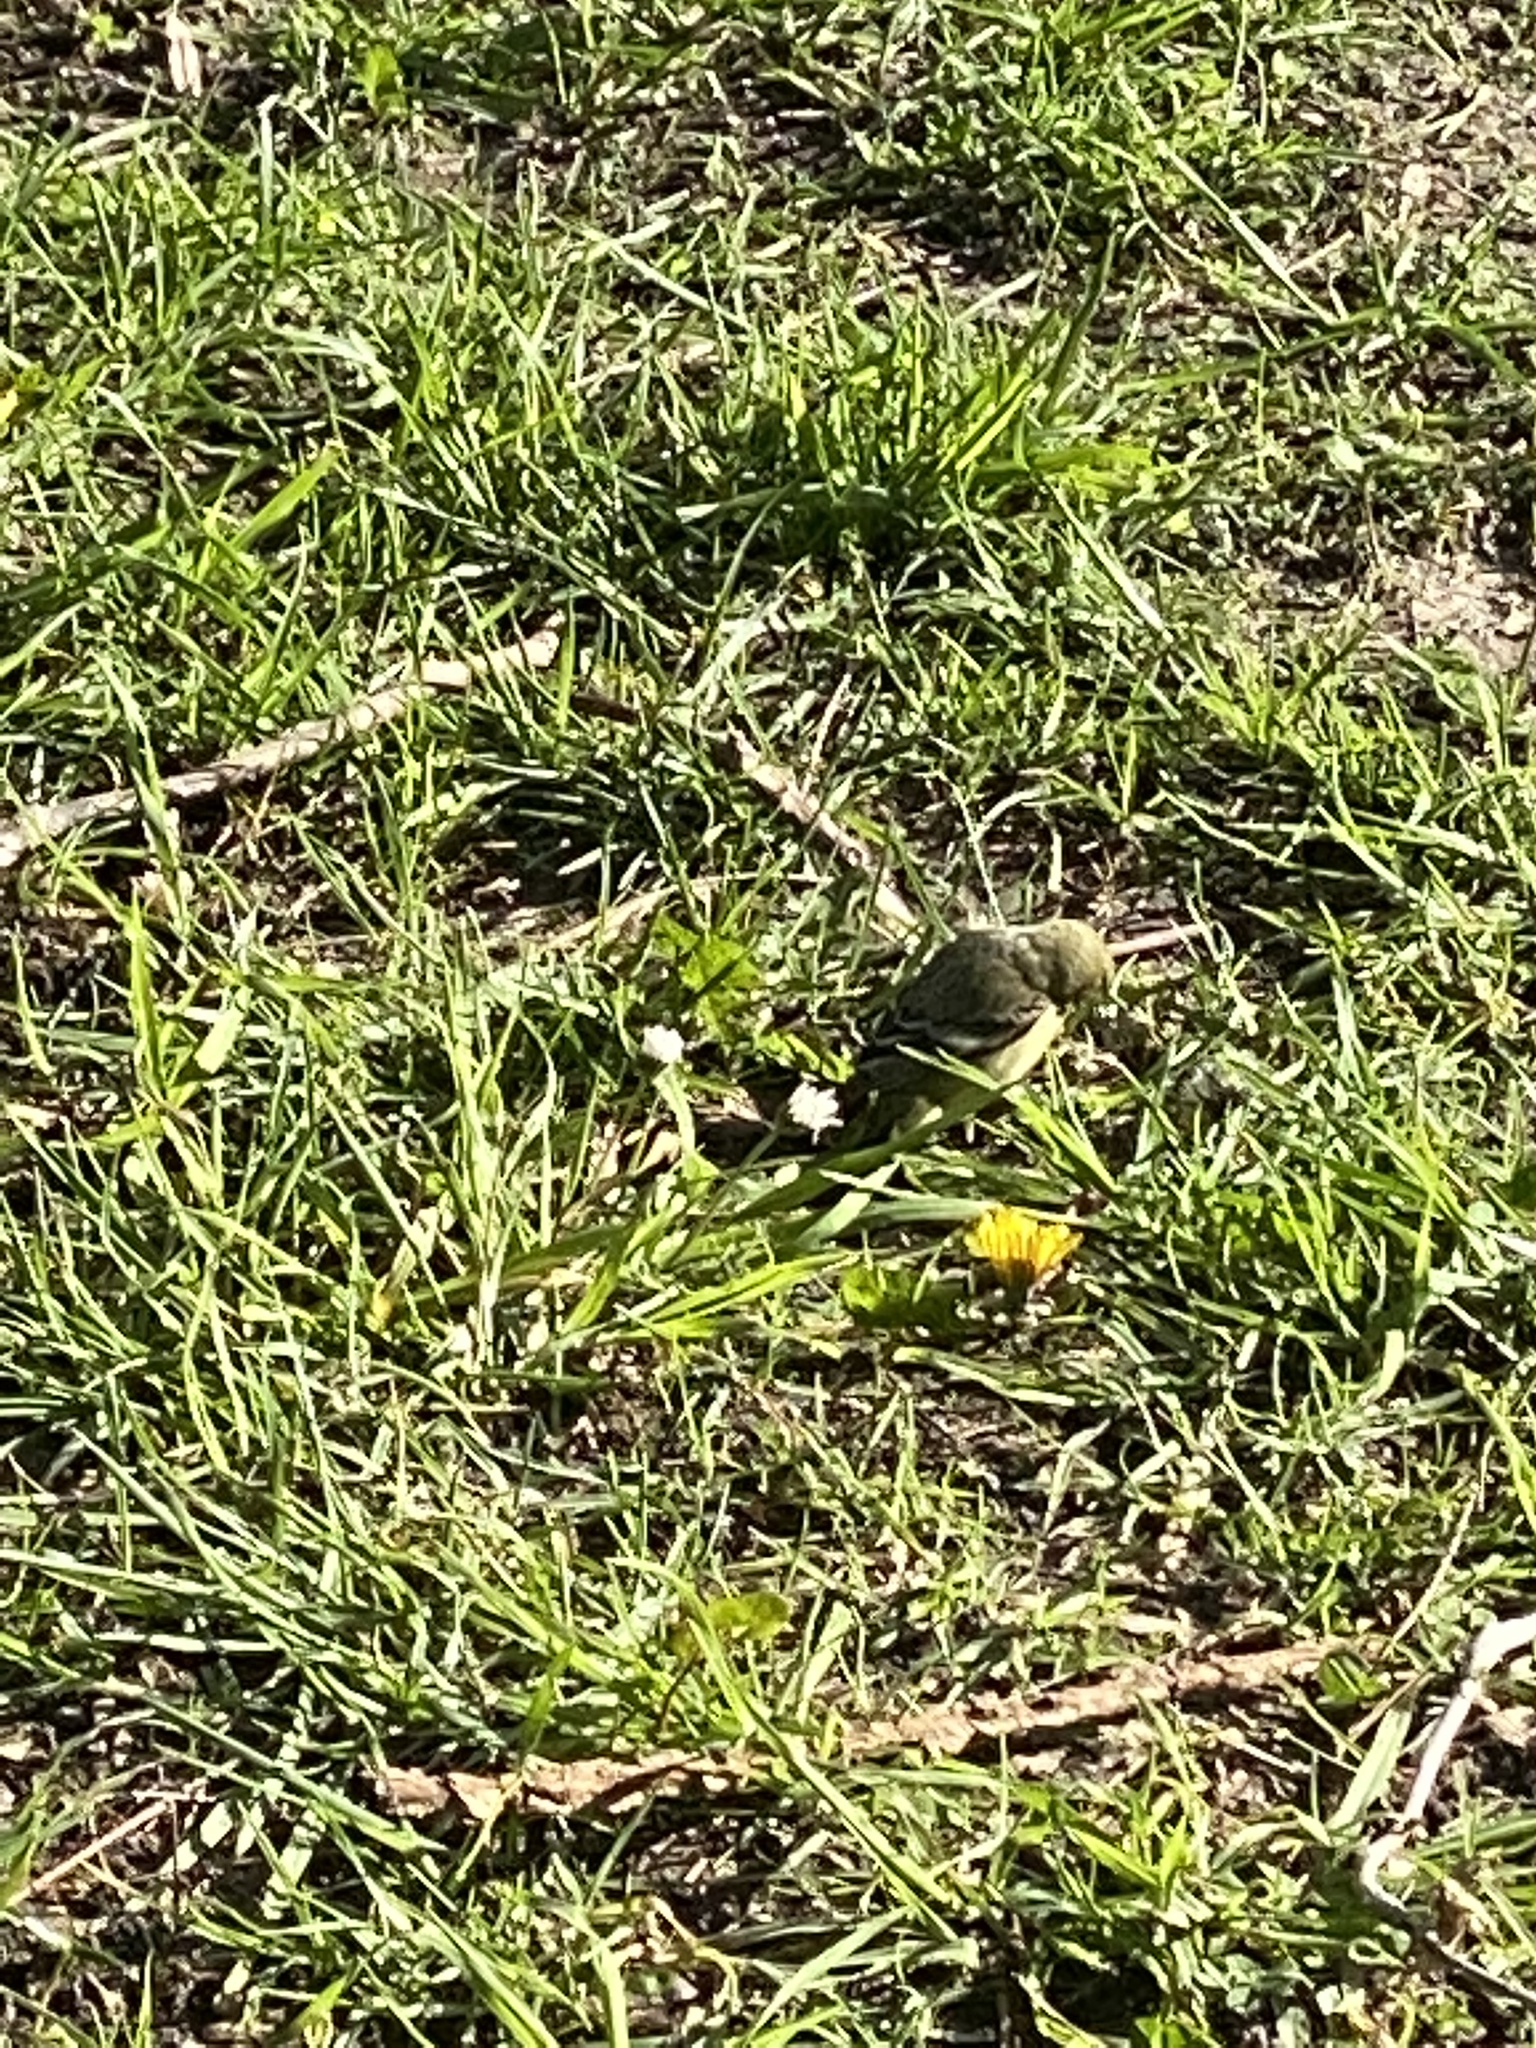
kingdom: Animalia
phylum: Chordata
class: Aves
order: Passeriformes
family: Parulidae
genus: Setophaga
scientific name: Setophaga coronata
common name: Myrtle warbler
